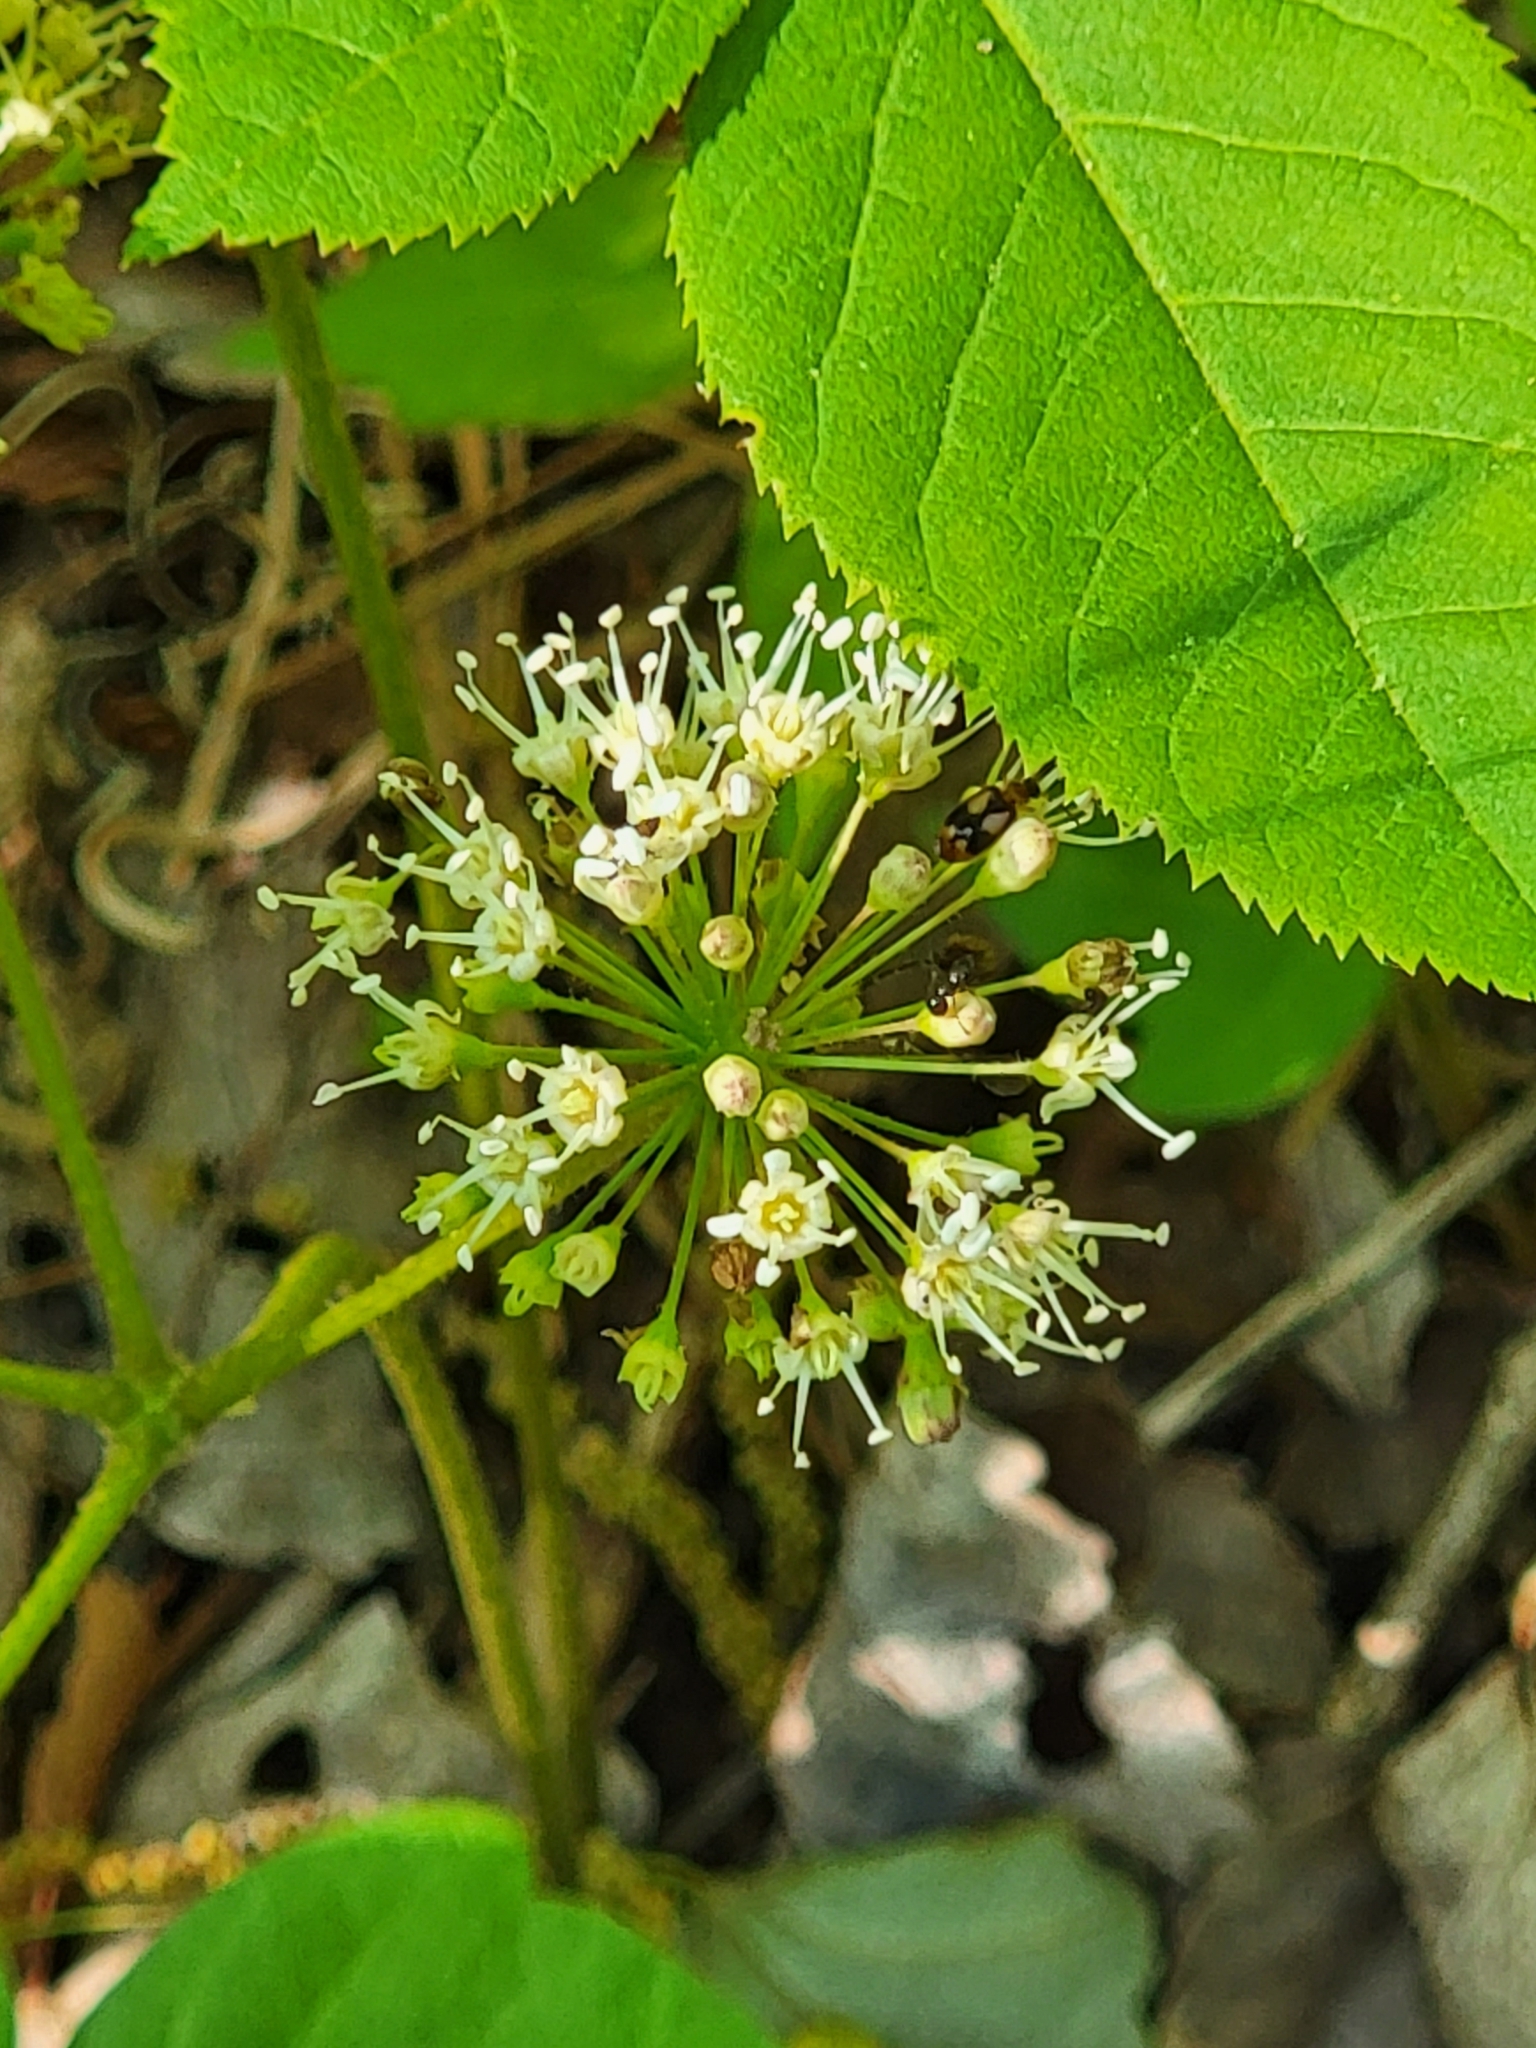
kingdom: Plantae
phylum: Tracheophyta
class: Magnoliopsida
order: Apiales
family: Araliaceae
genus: Aralia
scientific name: Aralia nudicaulis
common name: Wild sarsaparilla
